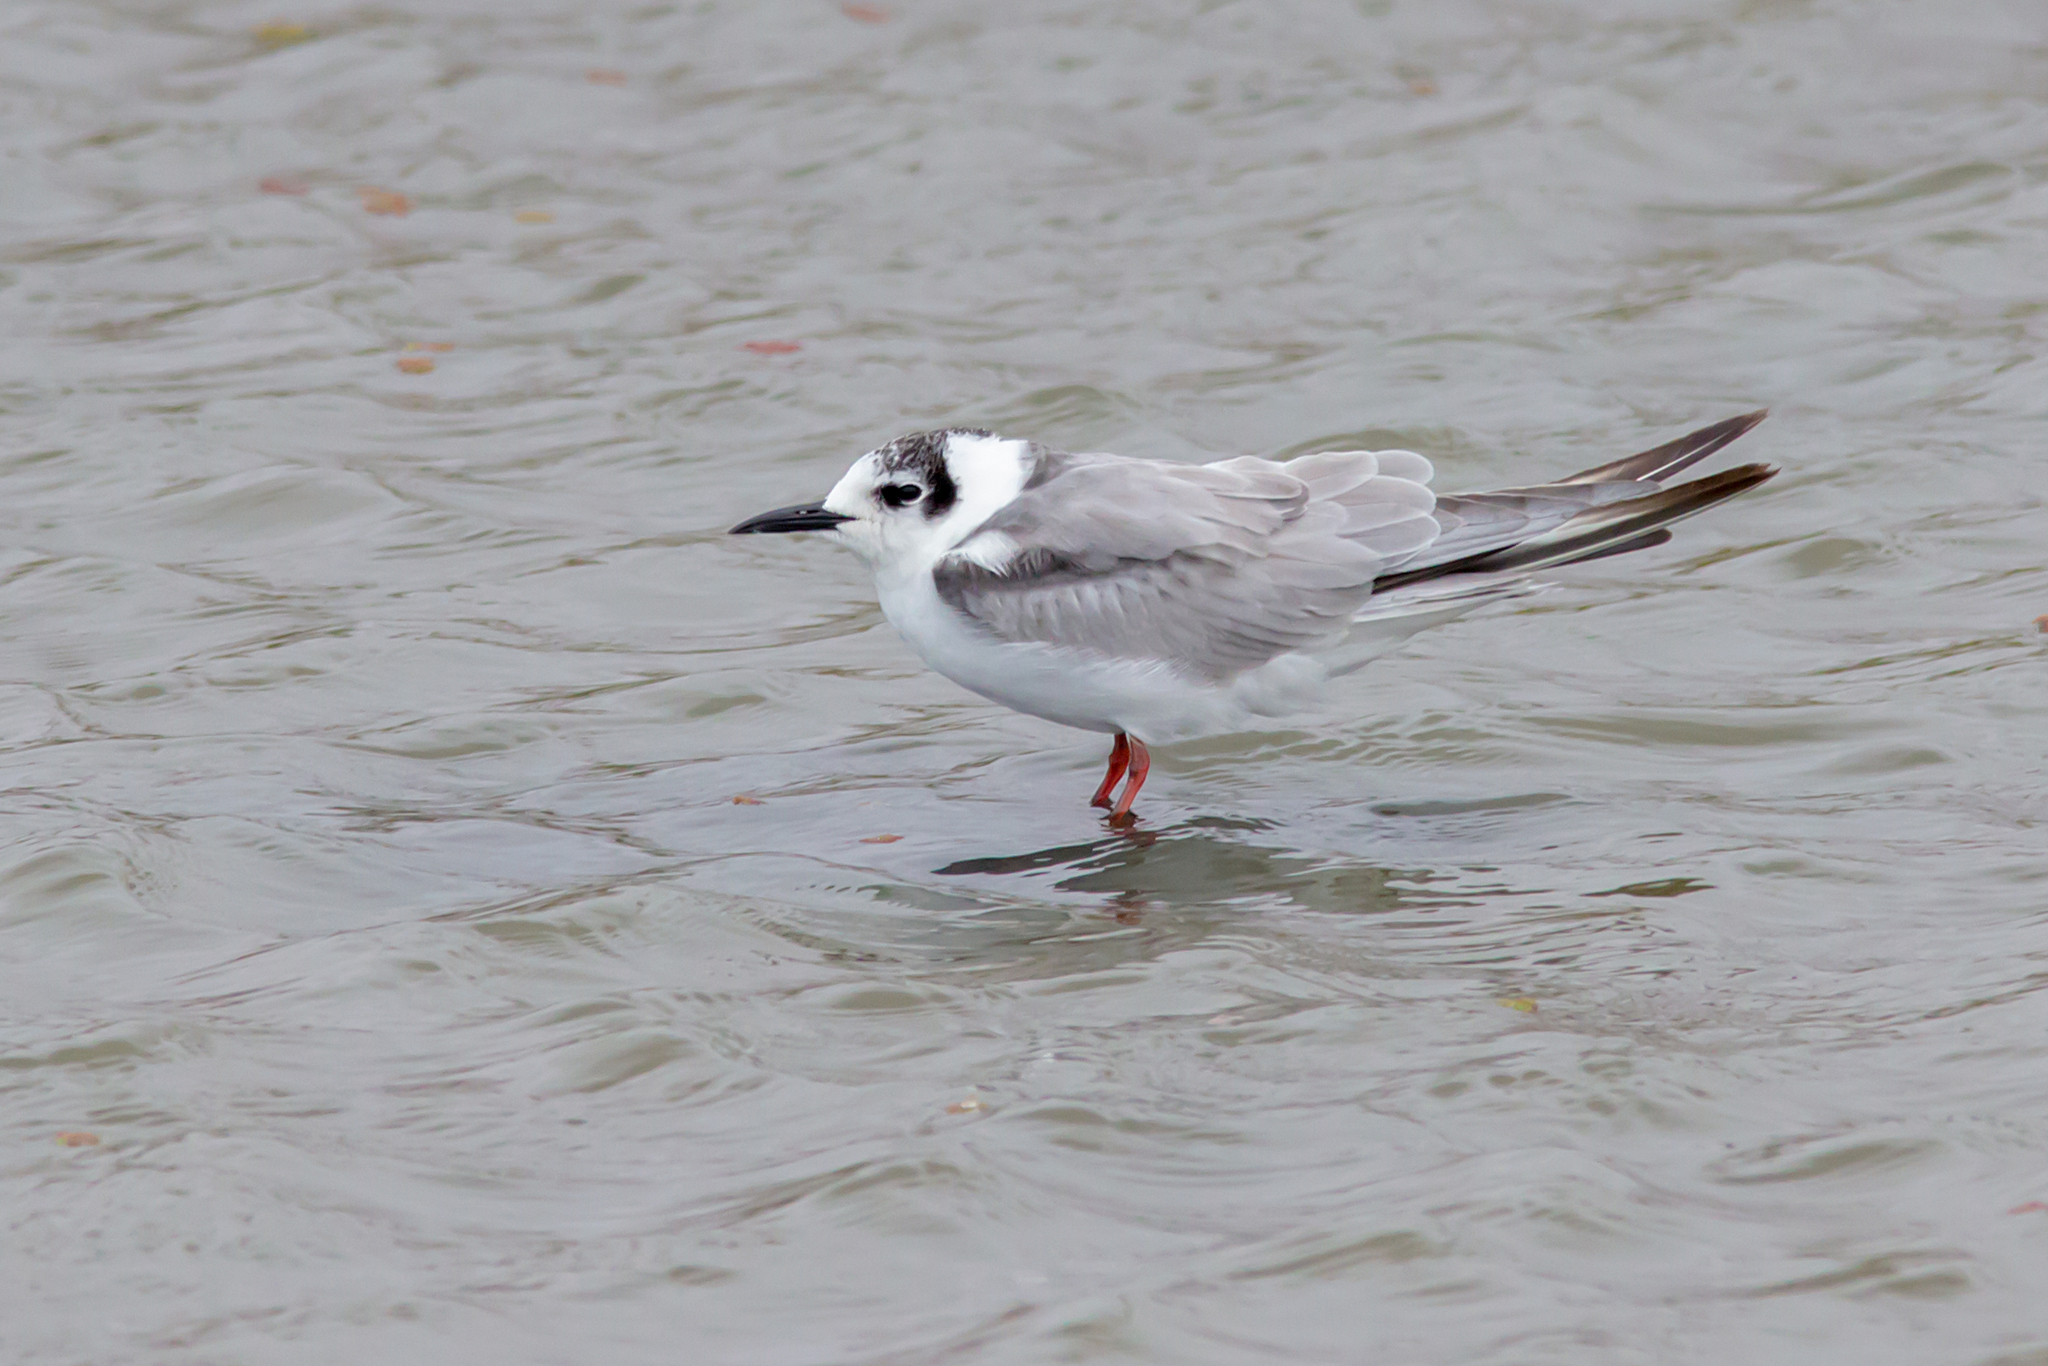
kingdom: Animalia
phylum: Chordata
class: Aves
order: Charadriiformes
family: Laridae
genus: Chlidonias
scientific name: Chlidonias leucopterus
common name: White-winged tern
